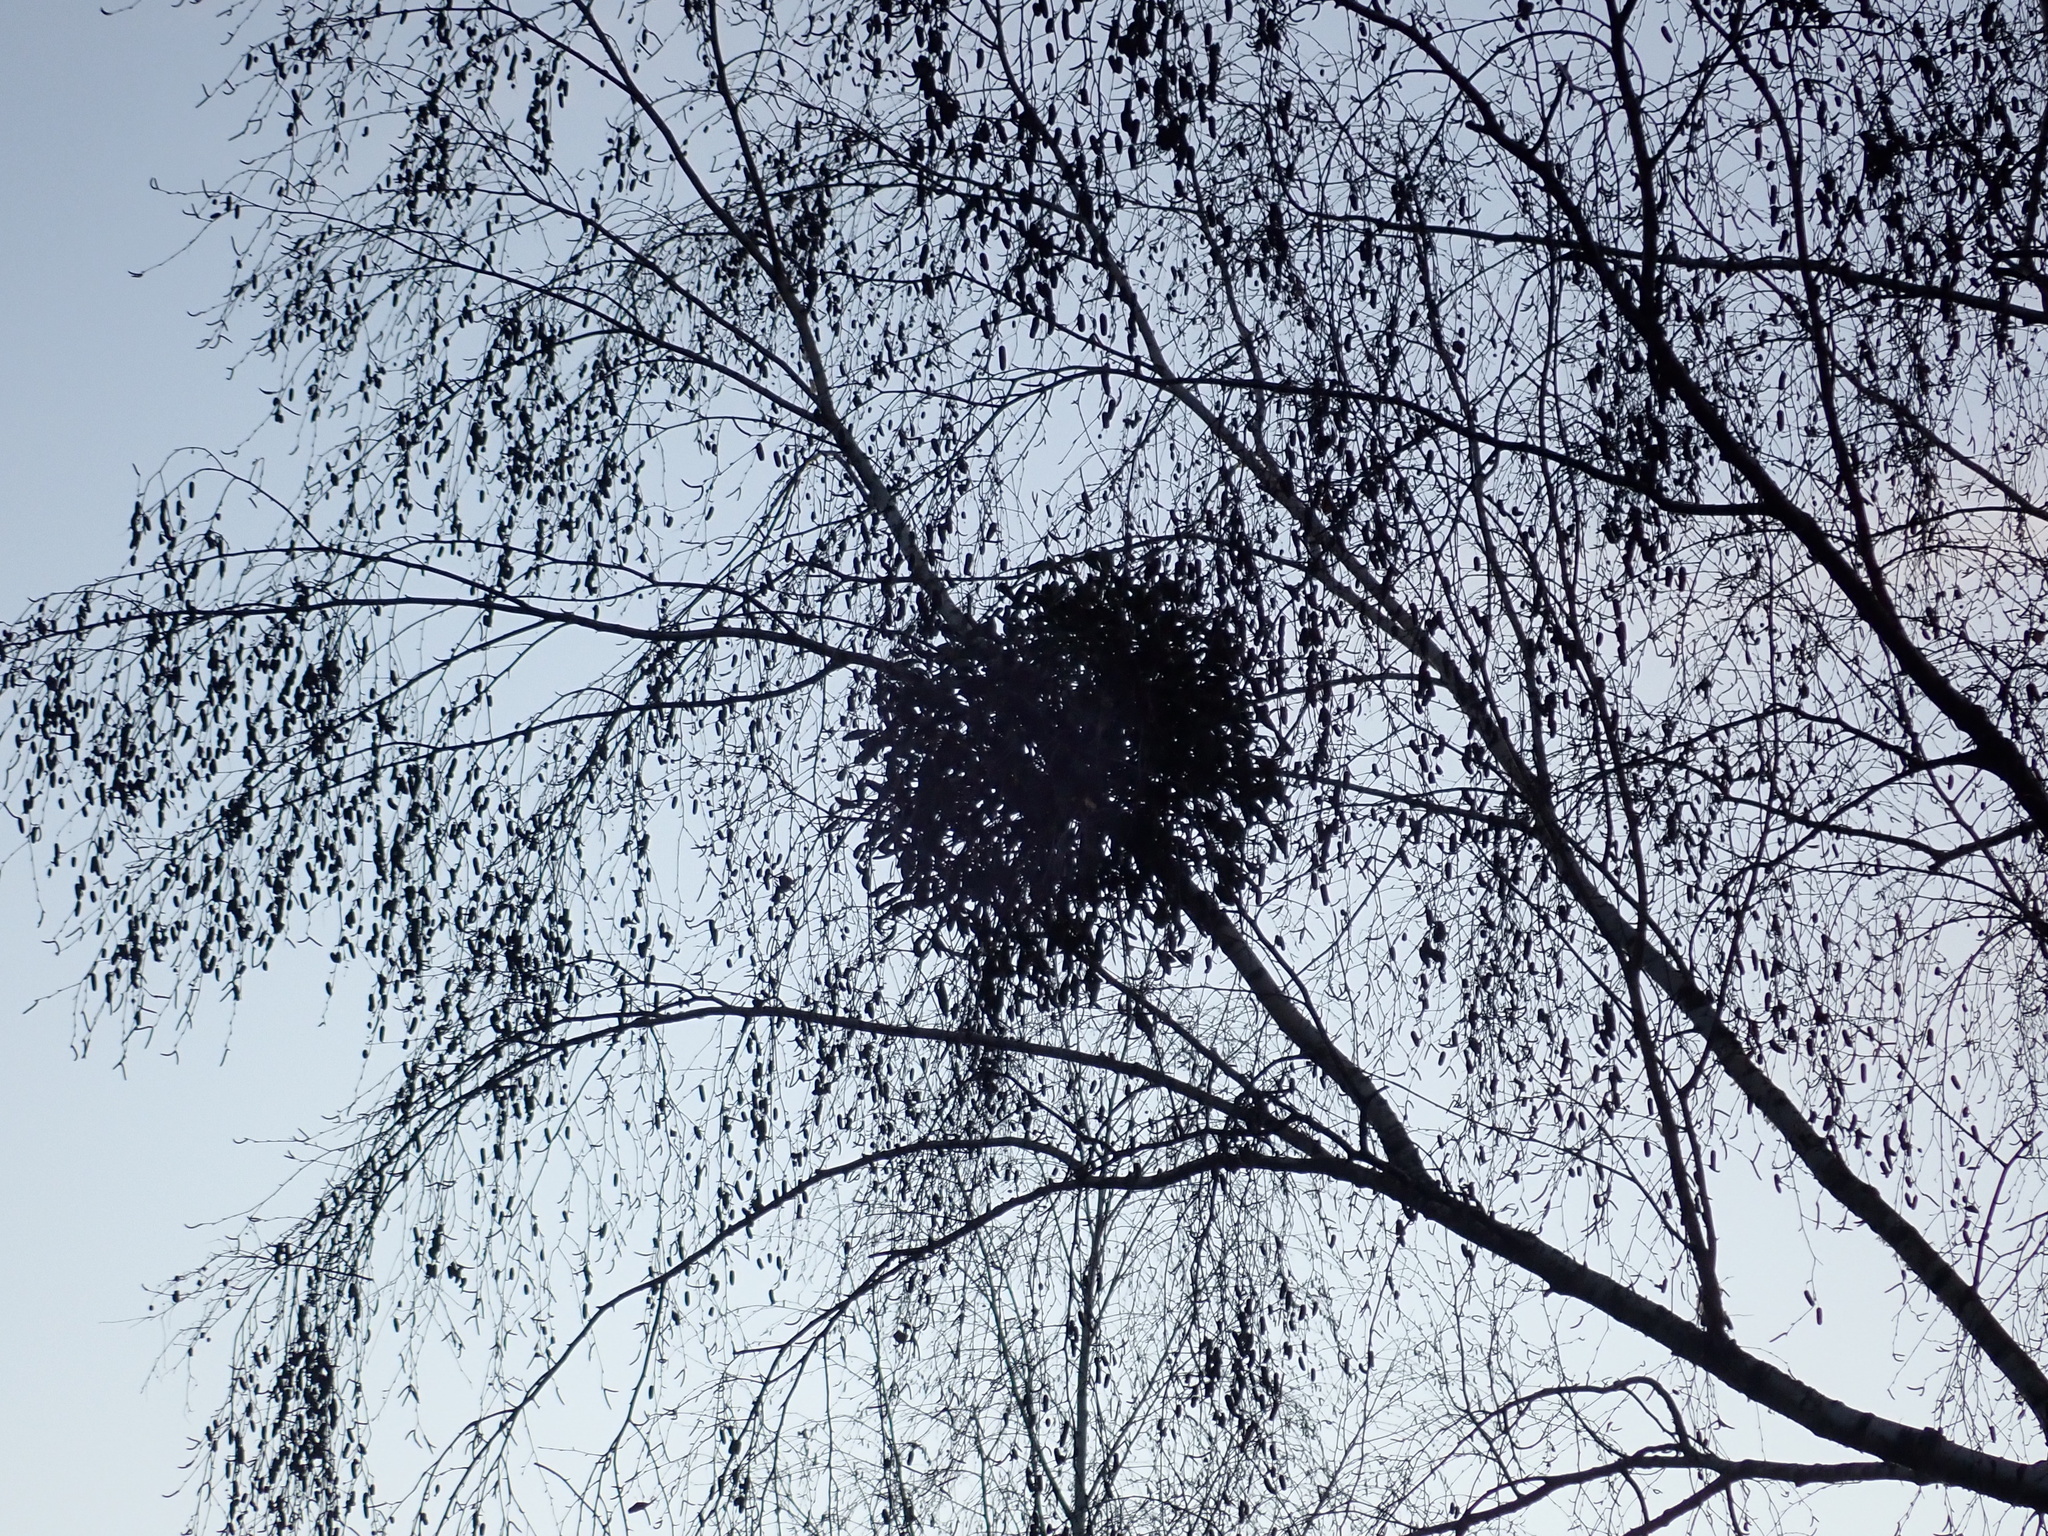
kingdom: Plantae
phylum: Tracheophyta
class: Magnoliopsida
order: Santalales
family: Viscaceae
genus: Viscum
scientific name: Viscum album
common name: Mistletoe
